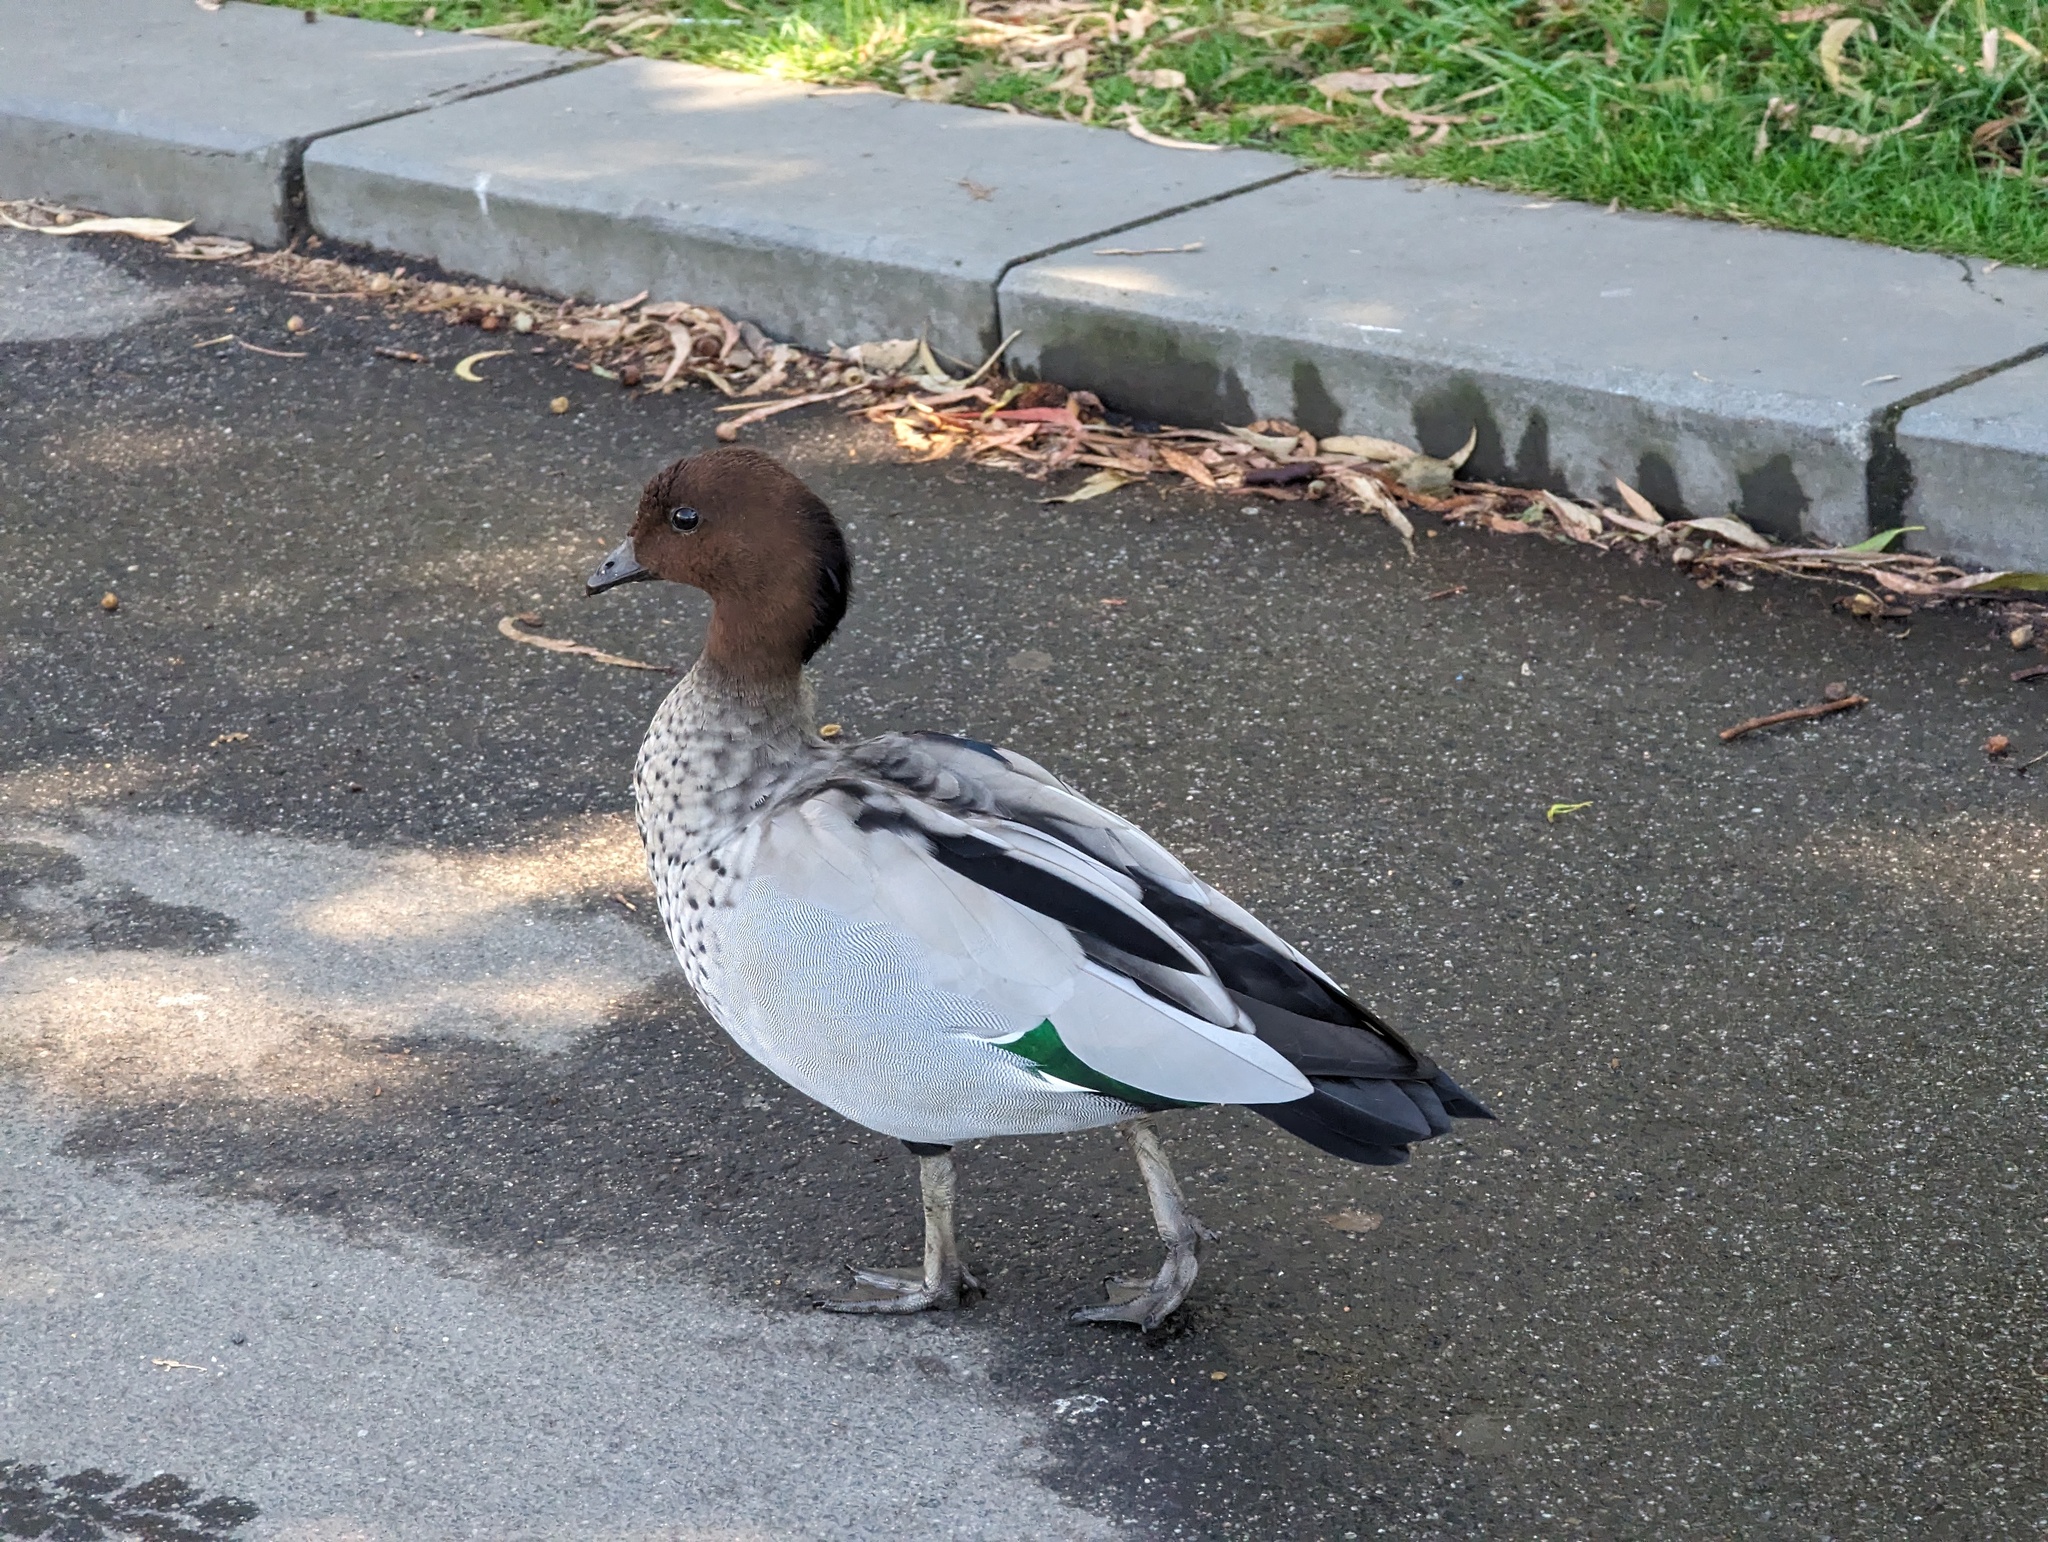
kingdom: Animalia
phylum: Chordata
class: Aves
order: Anseriformes
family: Anatidae
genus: Chenonetta
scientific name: Chenonetta jubata
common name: Maned duck
